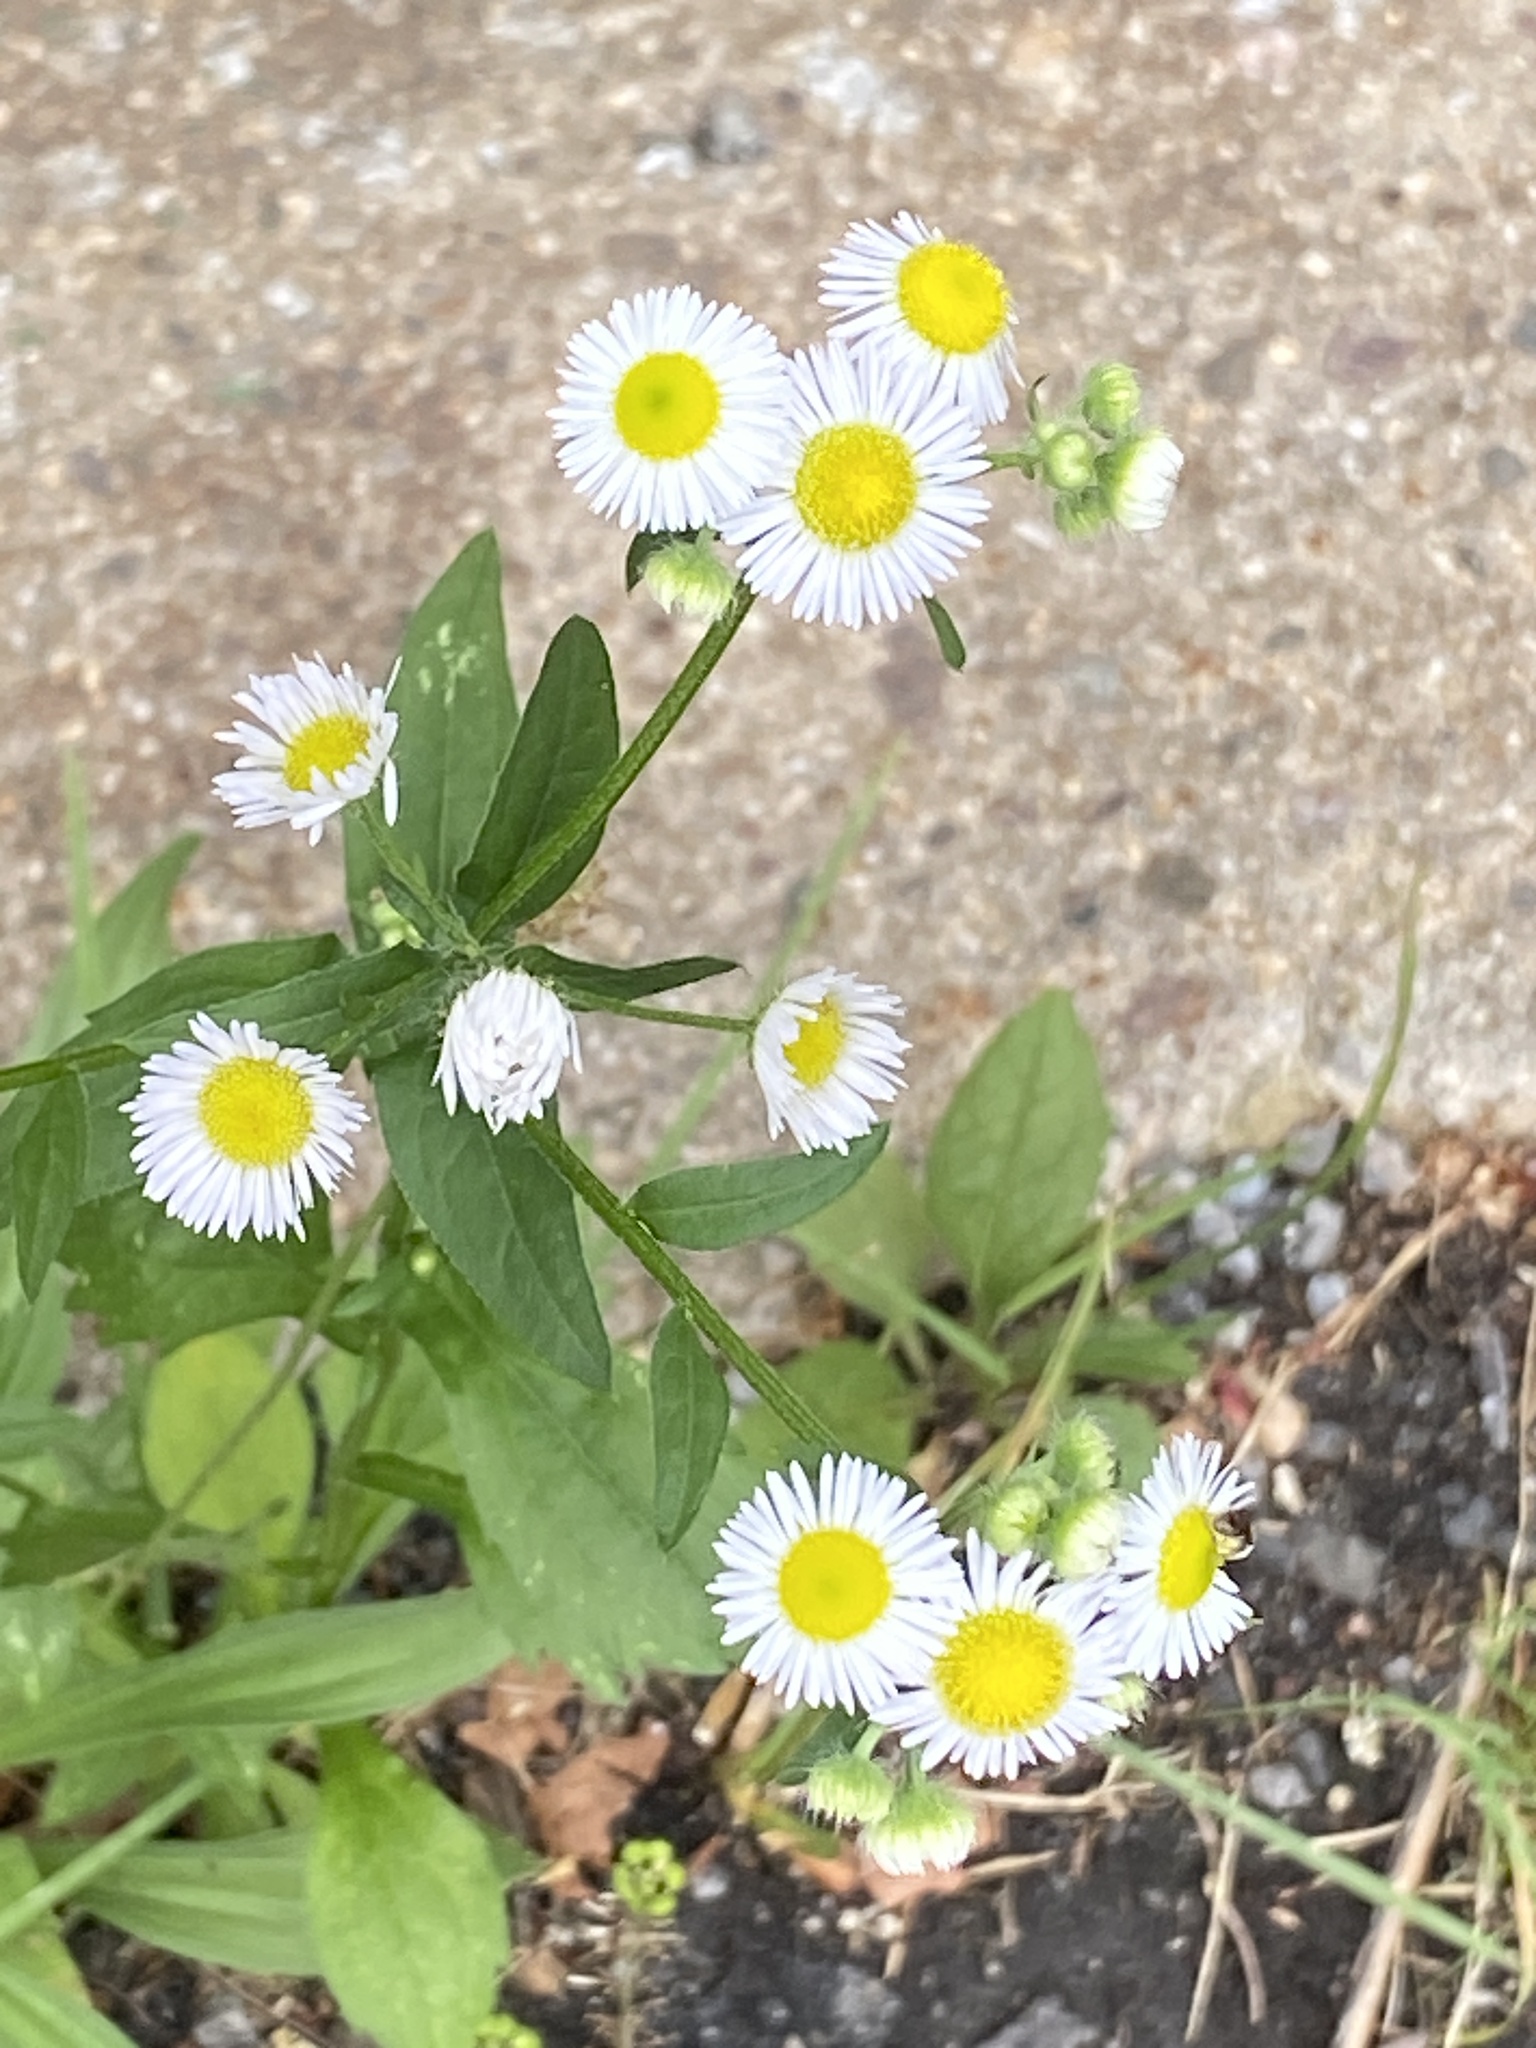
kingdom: Plantae
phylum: Tracheophyta
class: Magnoliopsida
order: Asterales
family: Asteraceae
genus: Erigeron
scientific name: Erigeron annuus
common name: Tall fleabane
